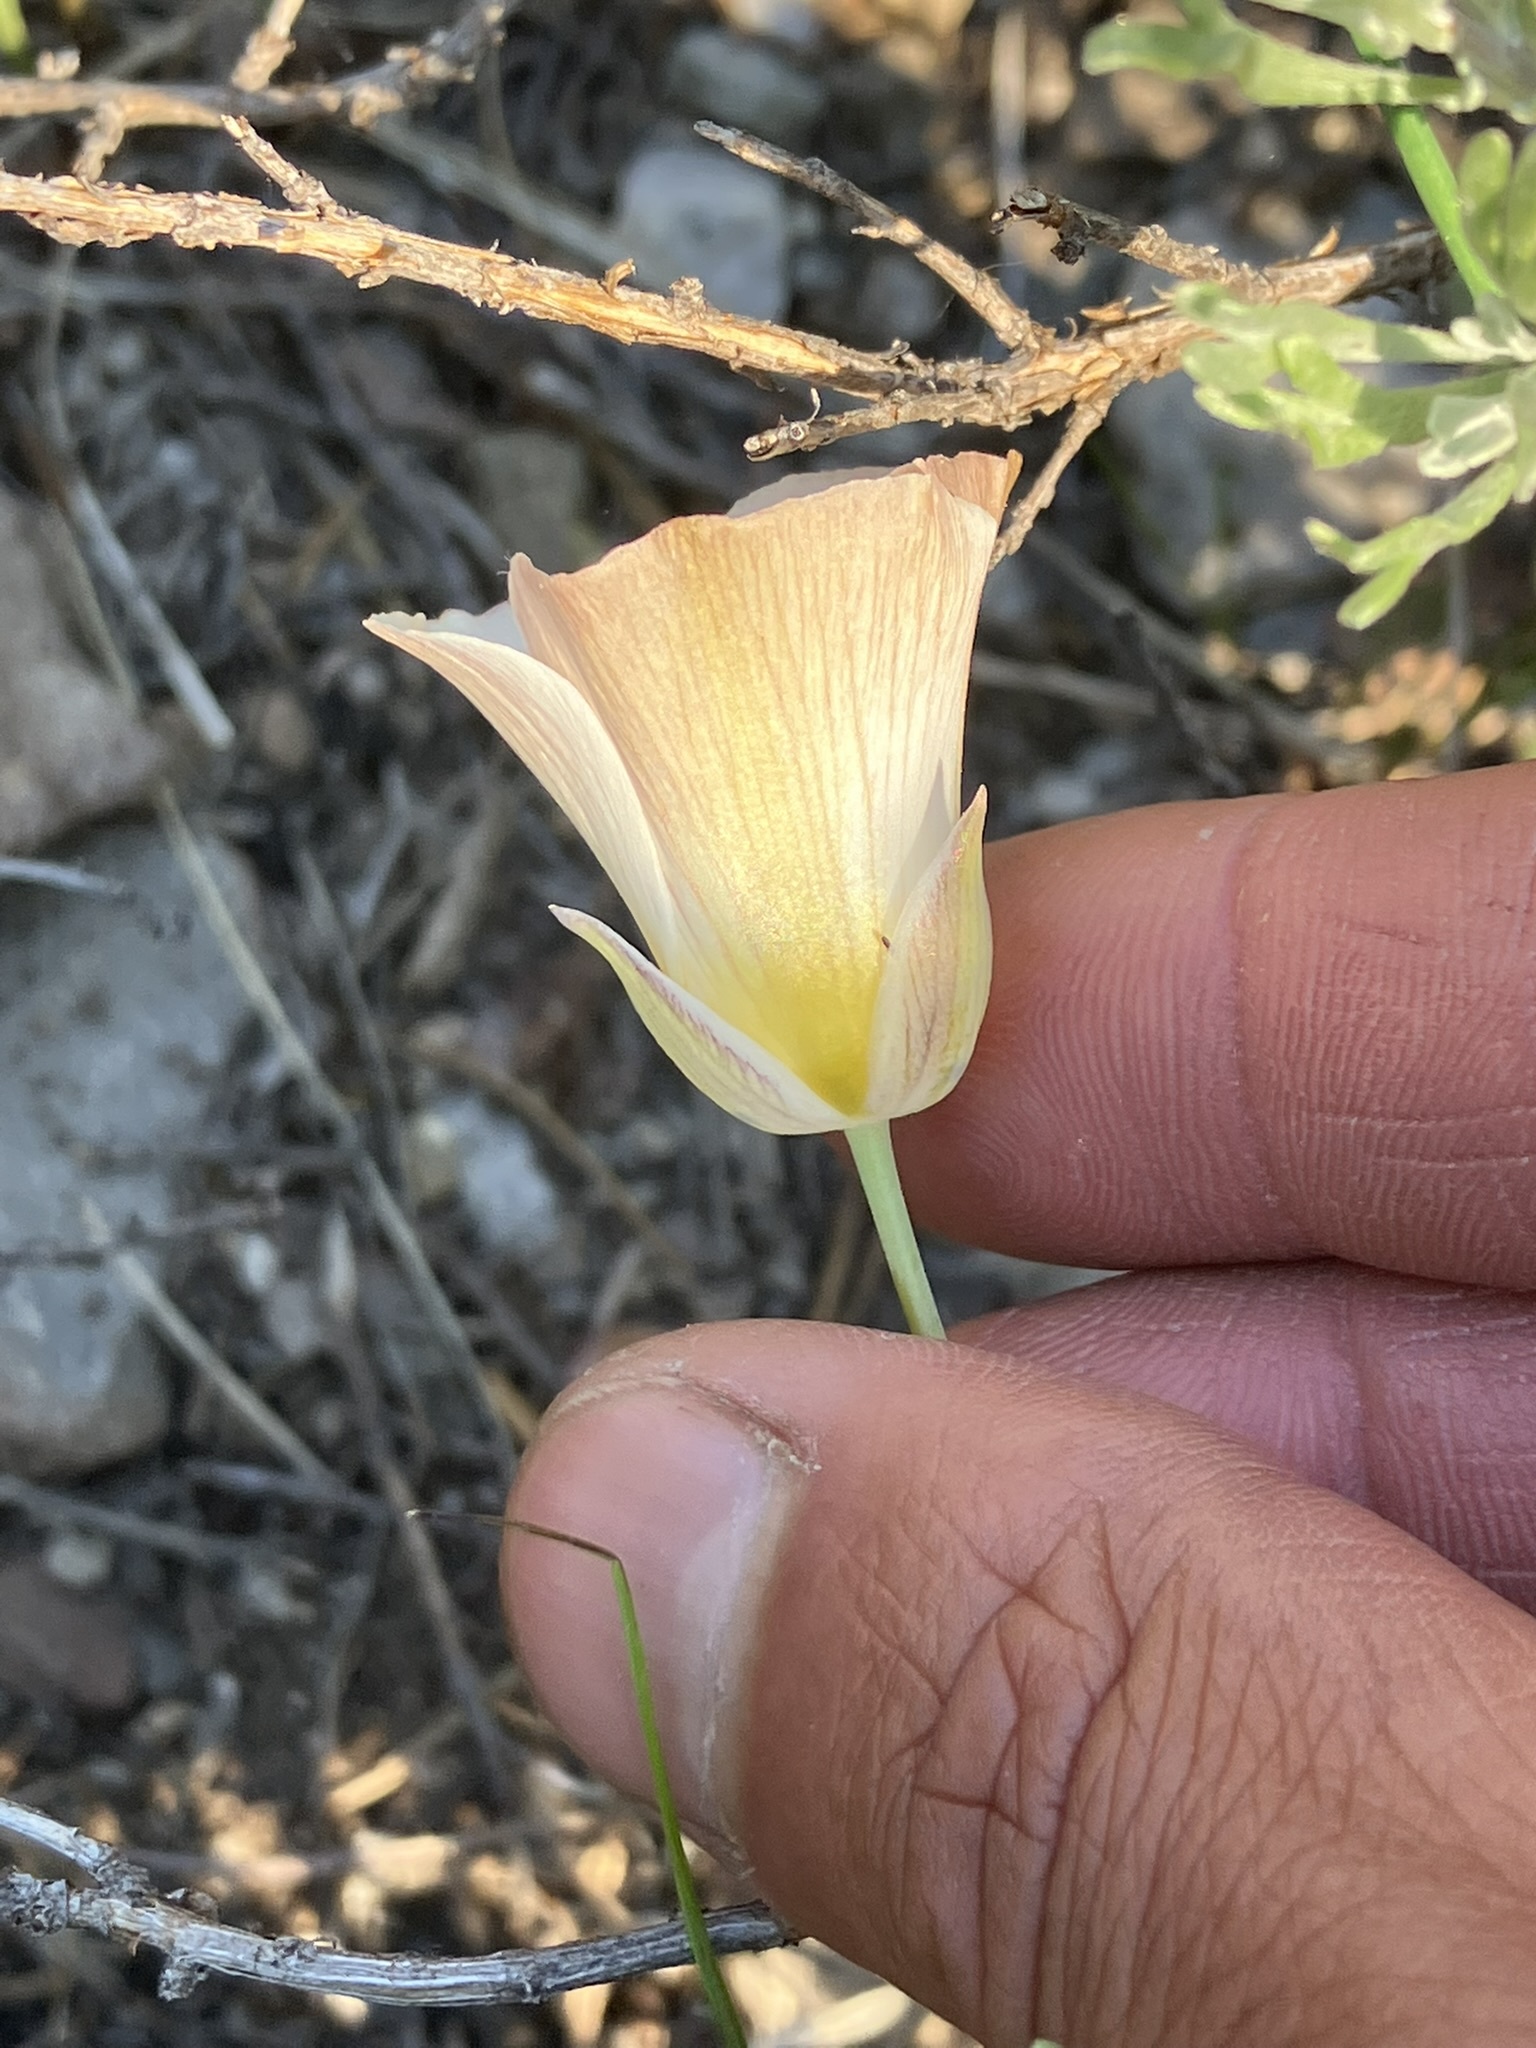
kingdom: Plantae
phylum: Tracheophyta
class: Liliopsida
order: Liliales
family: Liliaceae
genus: Calochortus
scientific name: Calochortus leichtlinii
